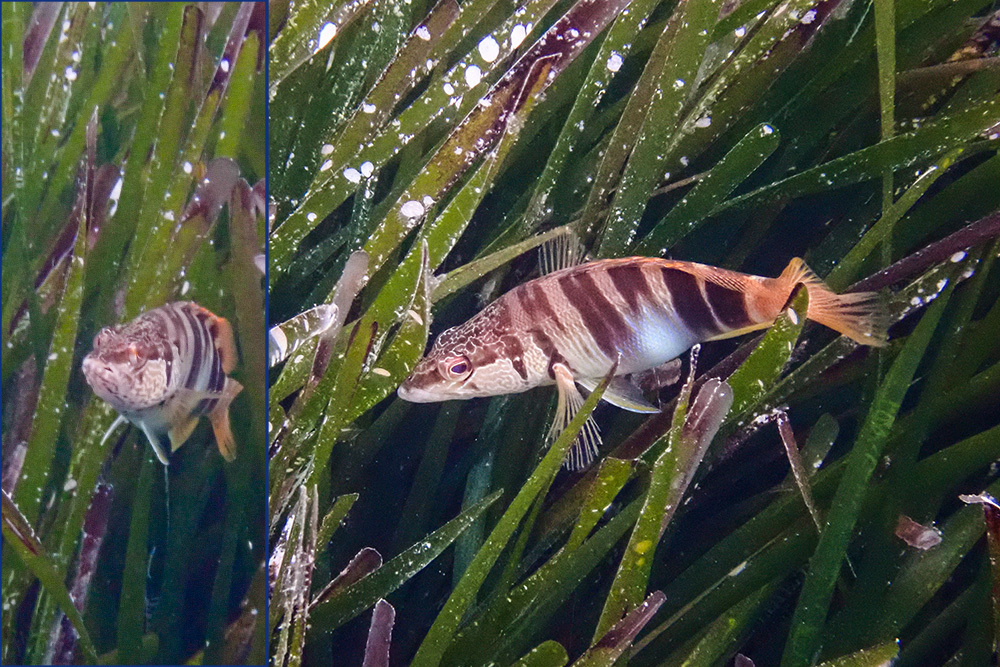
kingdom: Animalia
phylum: Chordata
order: Perciformes
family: Serranidae
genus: Serranus
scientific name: Serranus scriba
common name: Painted comber
